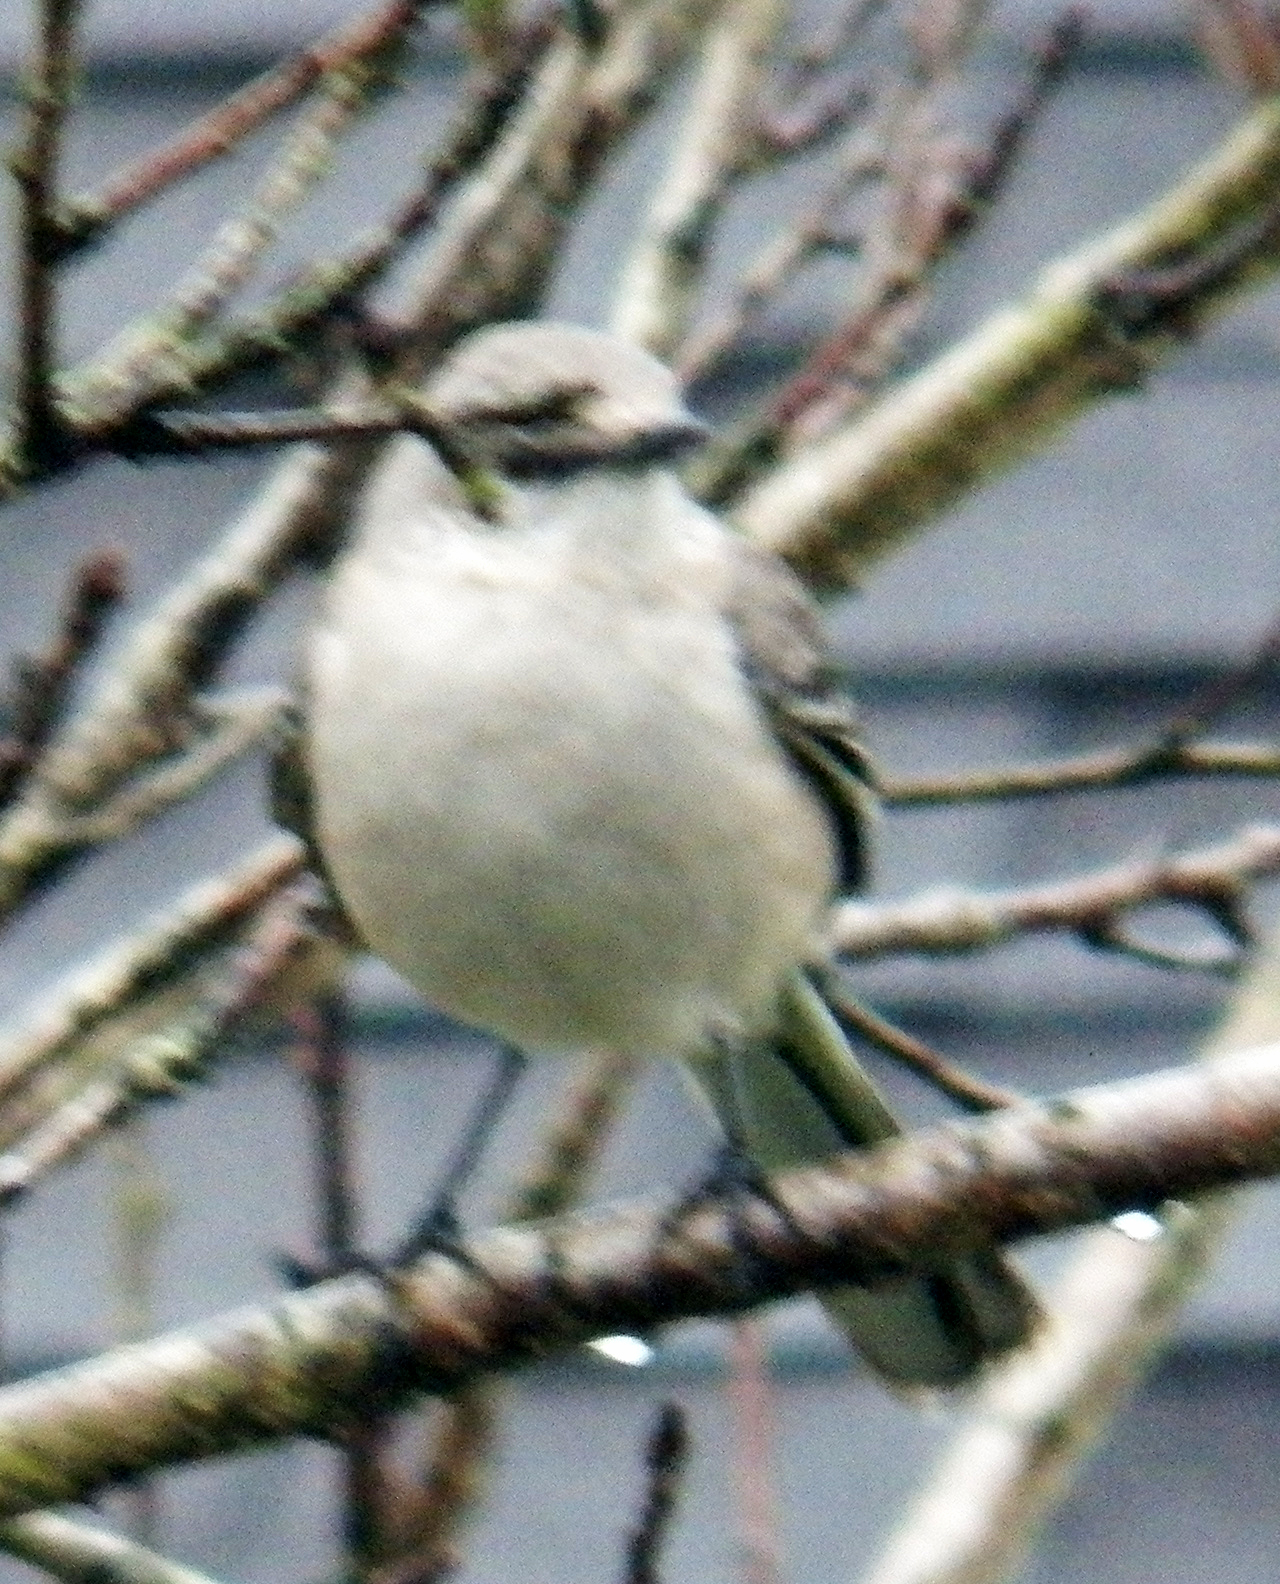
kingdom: Animalia
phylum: Chordata
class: Aves
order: Passeriformes
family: Mimidae
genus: Mimus
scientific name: Mimus polyglottos
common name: Northern mockingbird
